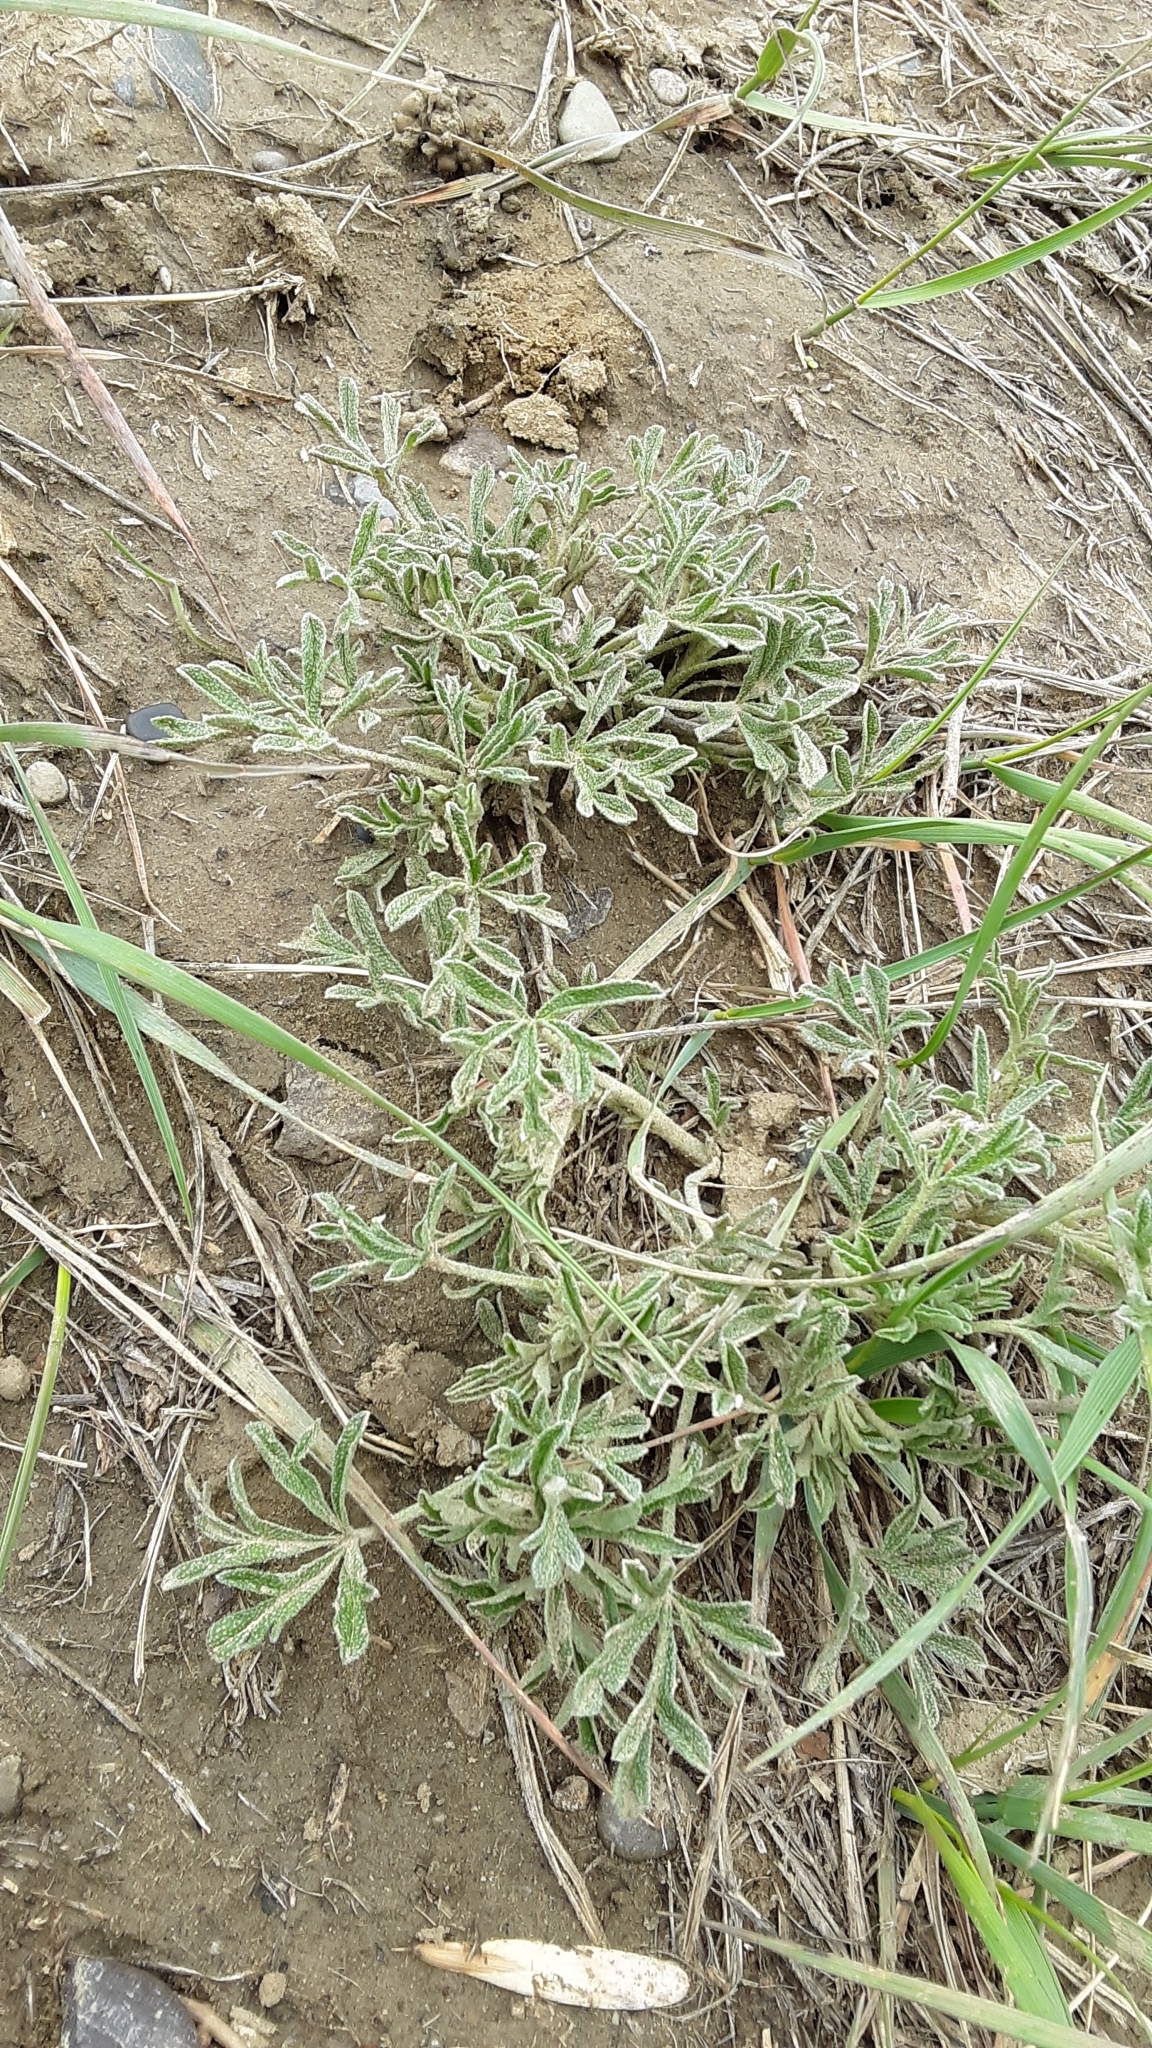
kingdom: Plantae
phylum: Tracheophyta
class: Magnoliopsida
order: Malvales
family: Malvaceae
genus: Sphaeralcea
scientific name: Sphaeralcea coccinea
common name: Moss-rose
